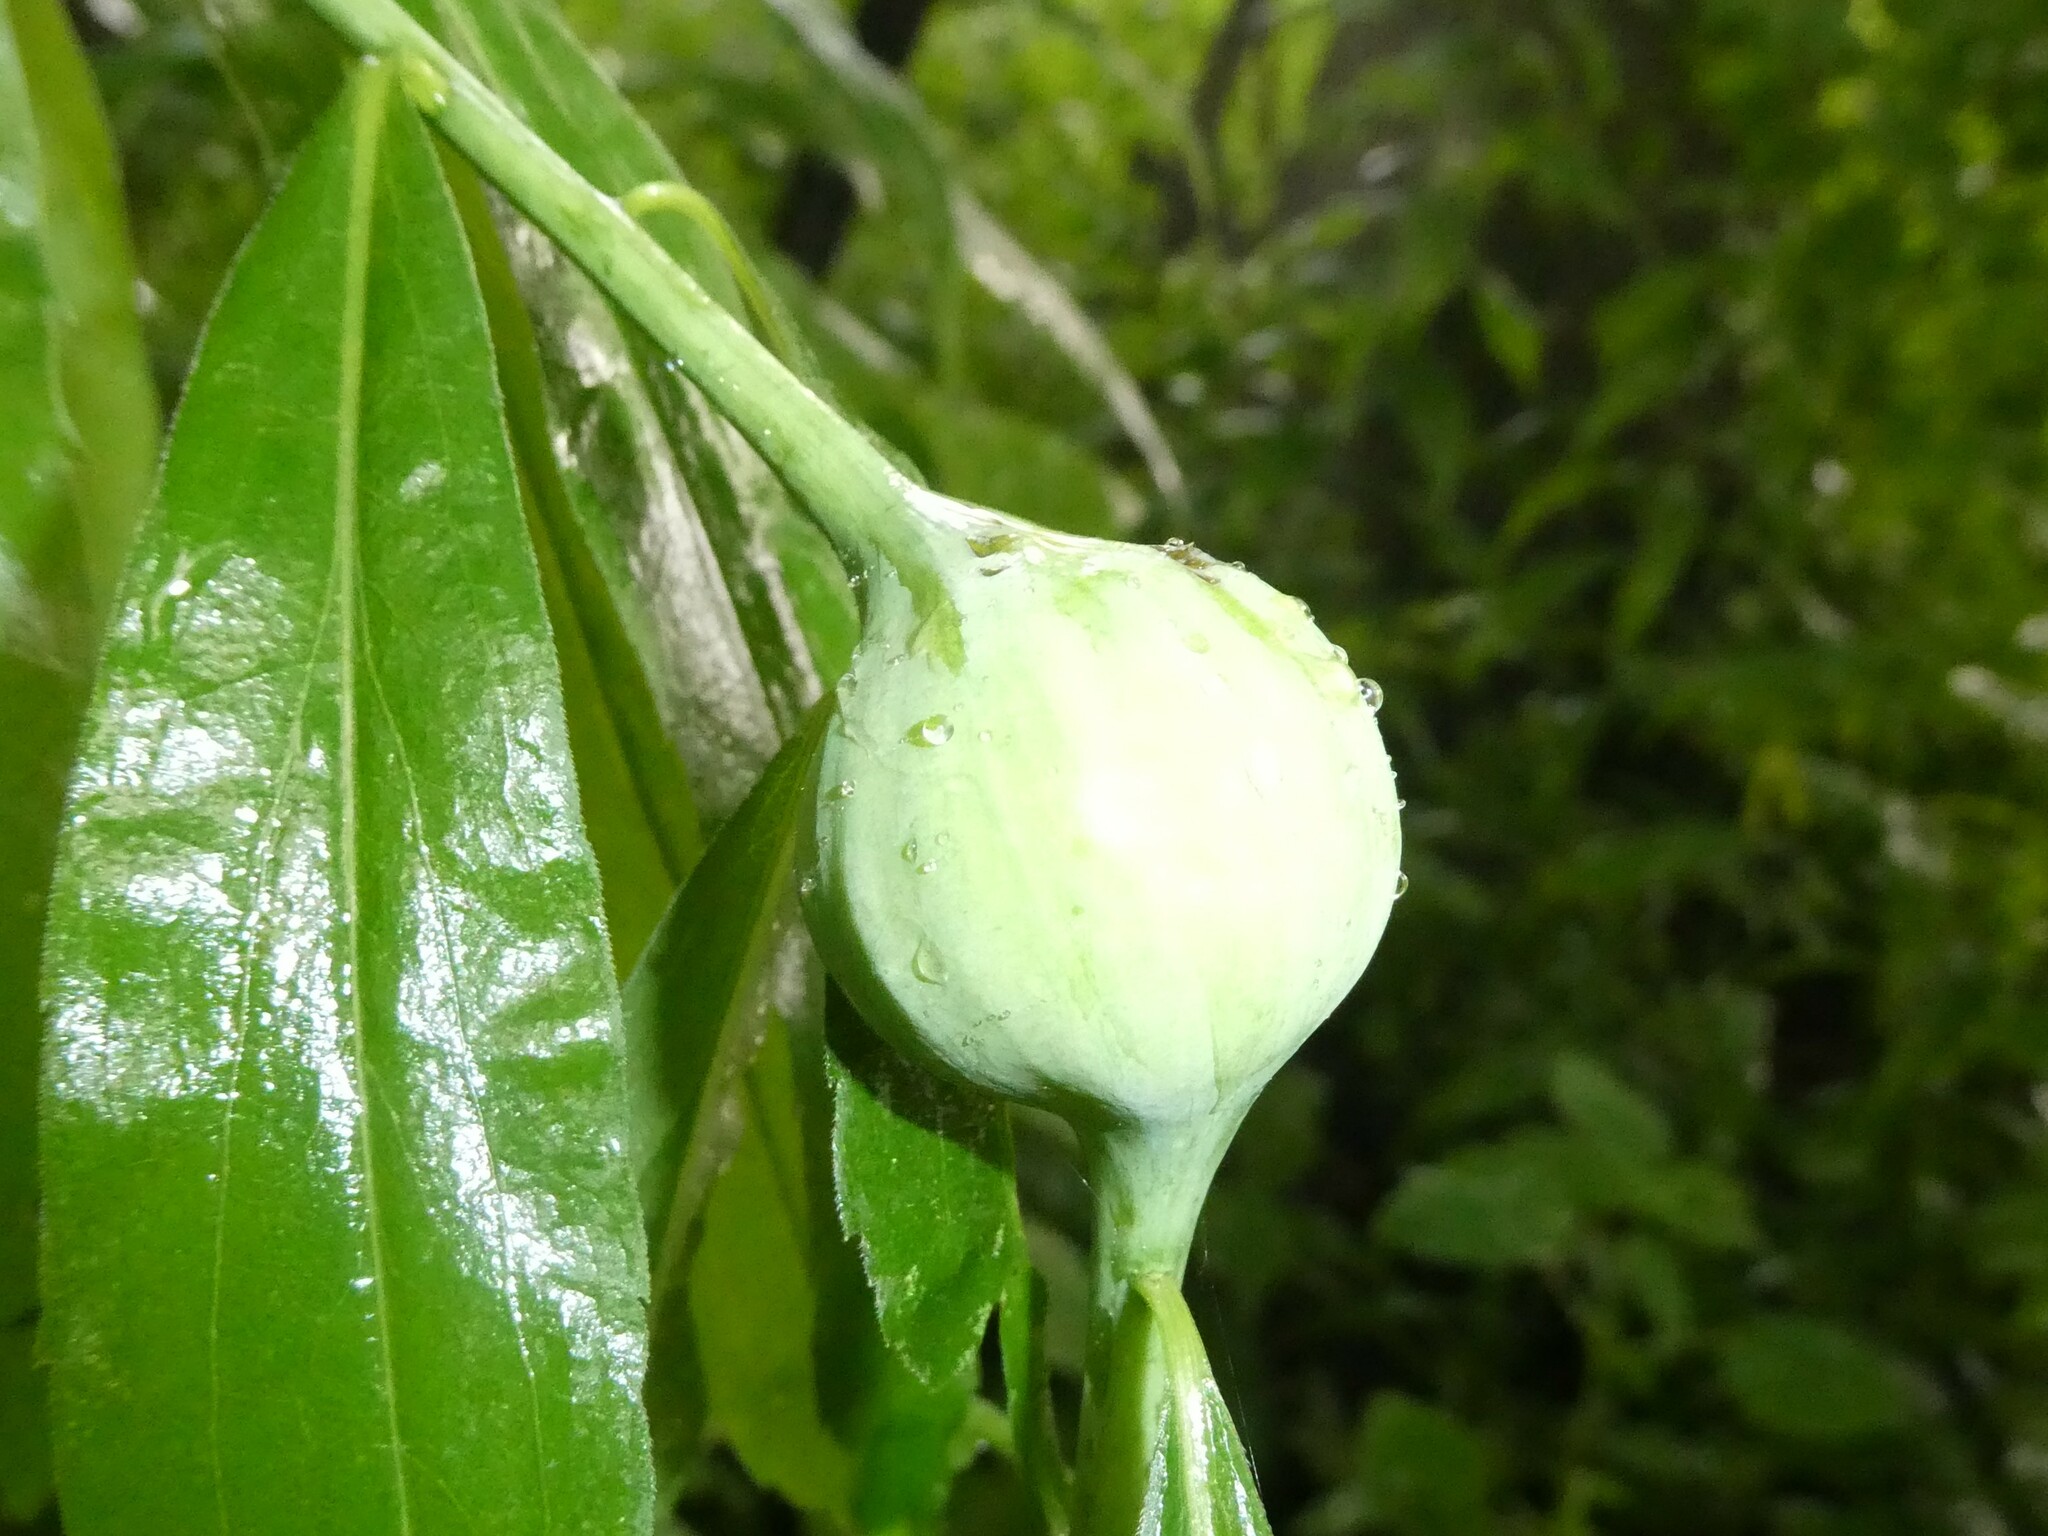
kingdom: Animalia
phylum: Arthropoda
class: Insecta
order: Diptera
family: Tephritidae
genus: Eurosta
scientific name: Eurosta solidaginis
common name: Goldenrod gall fly
